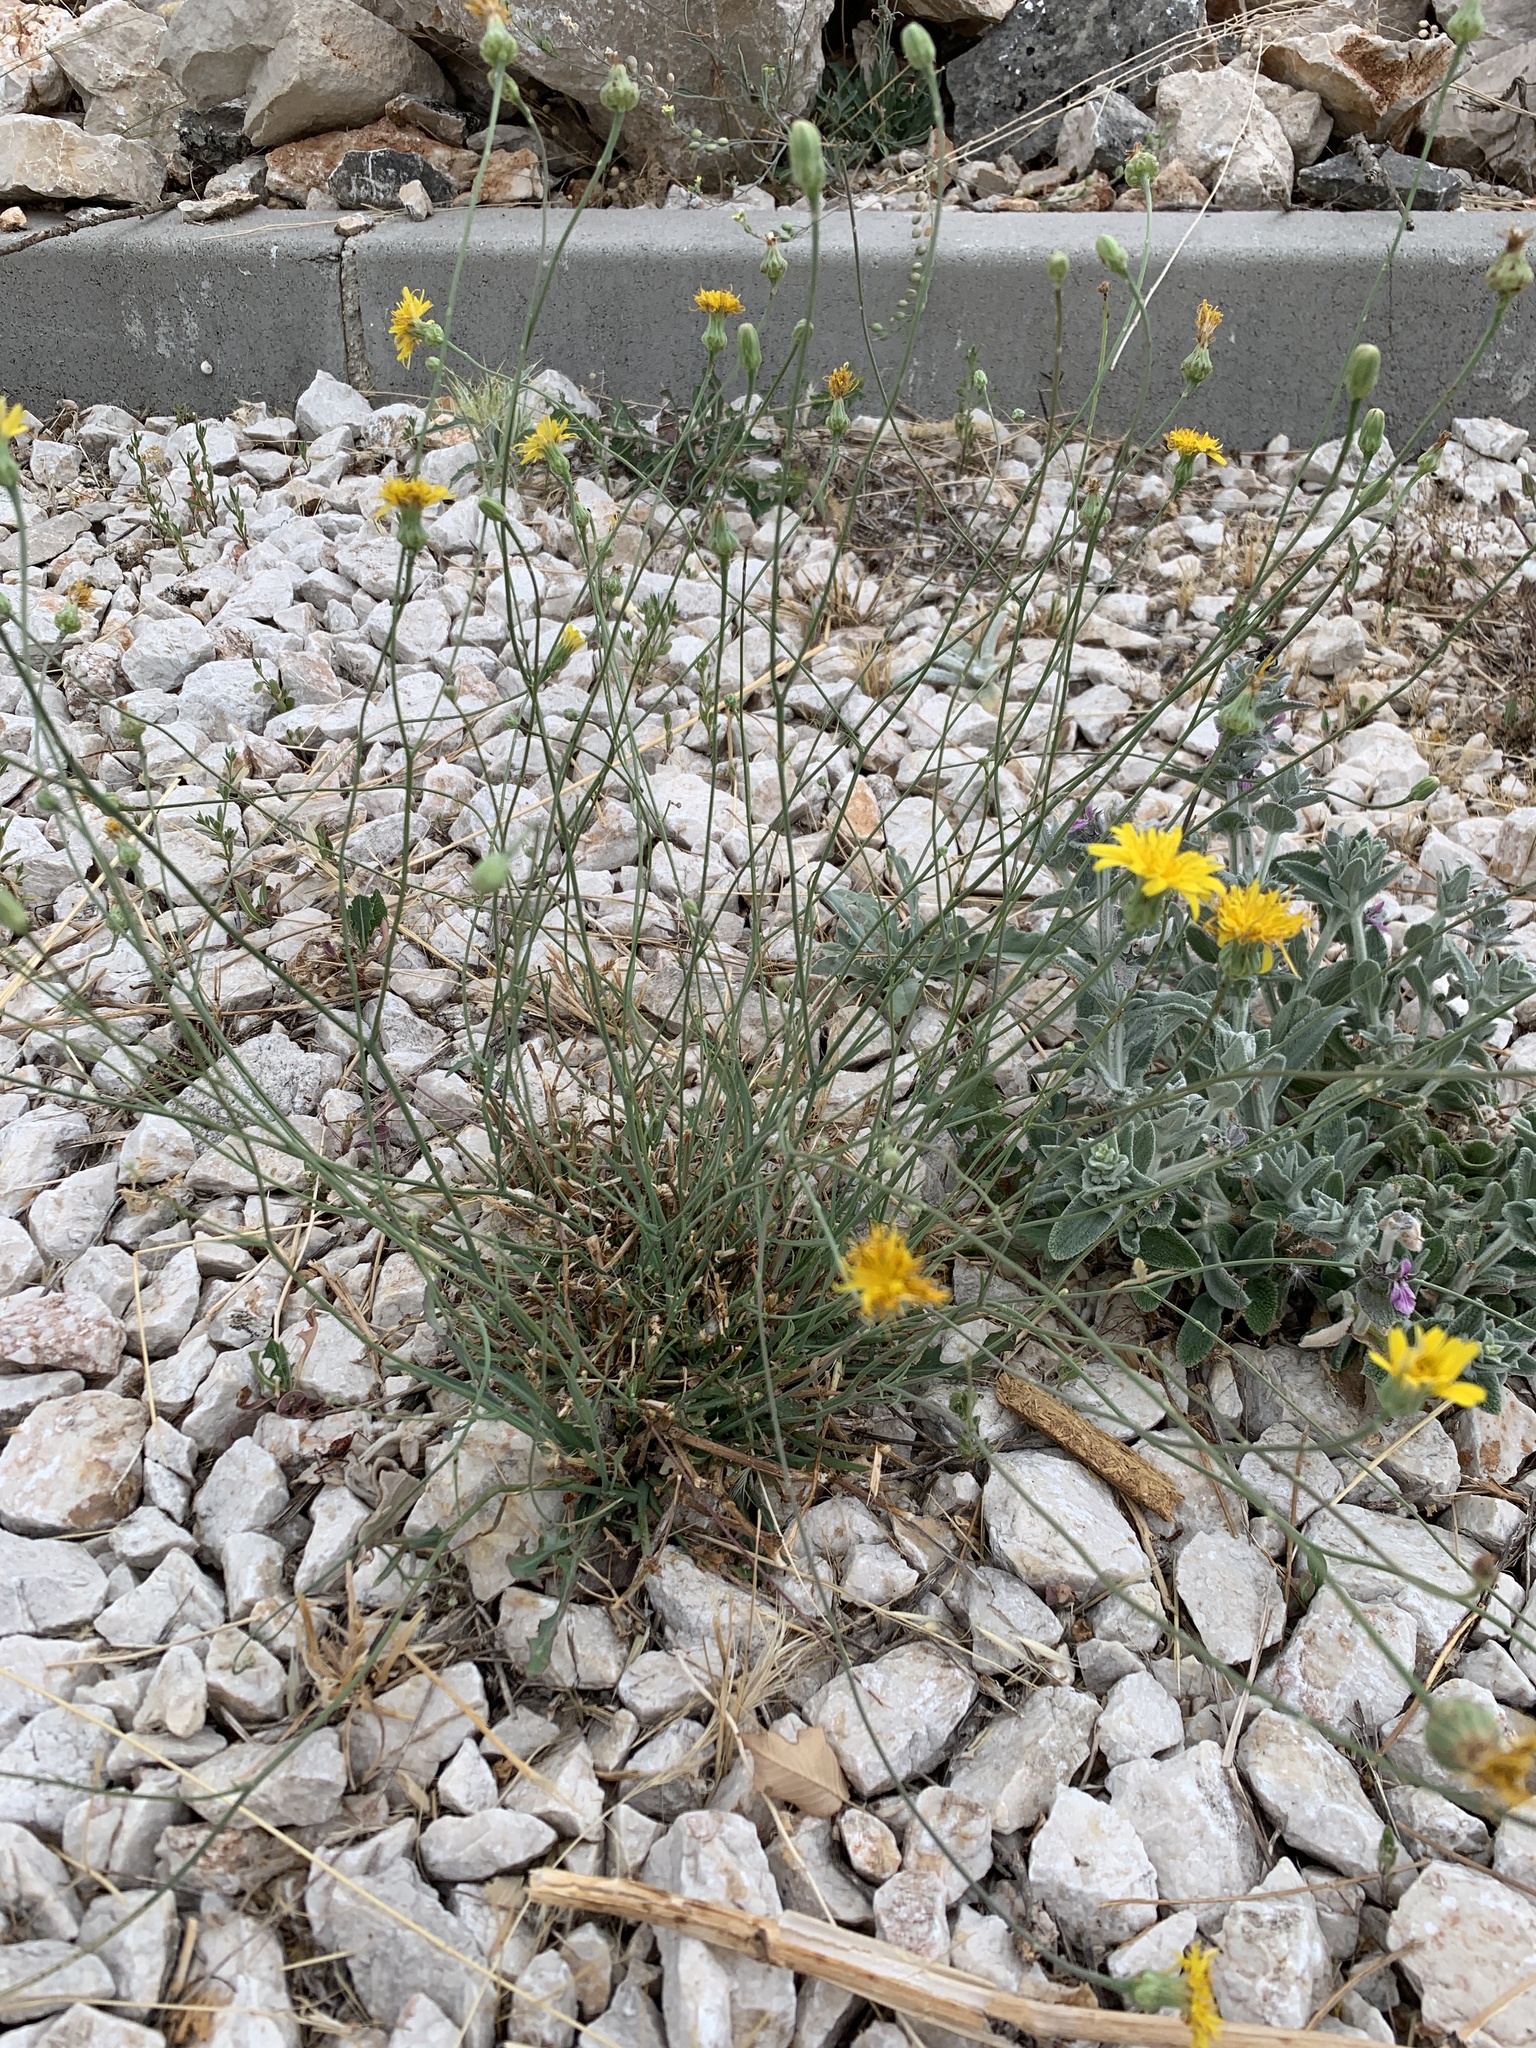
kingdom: Plantae
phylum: Tracheophyta
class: Magnoliopsida
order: Asterales
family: Asteraceae
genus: Reichardia
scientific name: Reichardia picroides
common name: Common brighteyes
